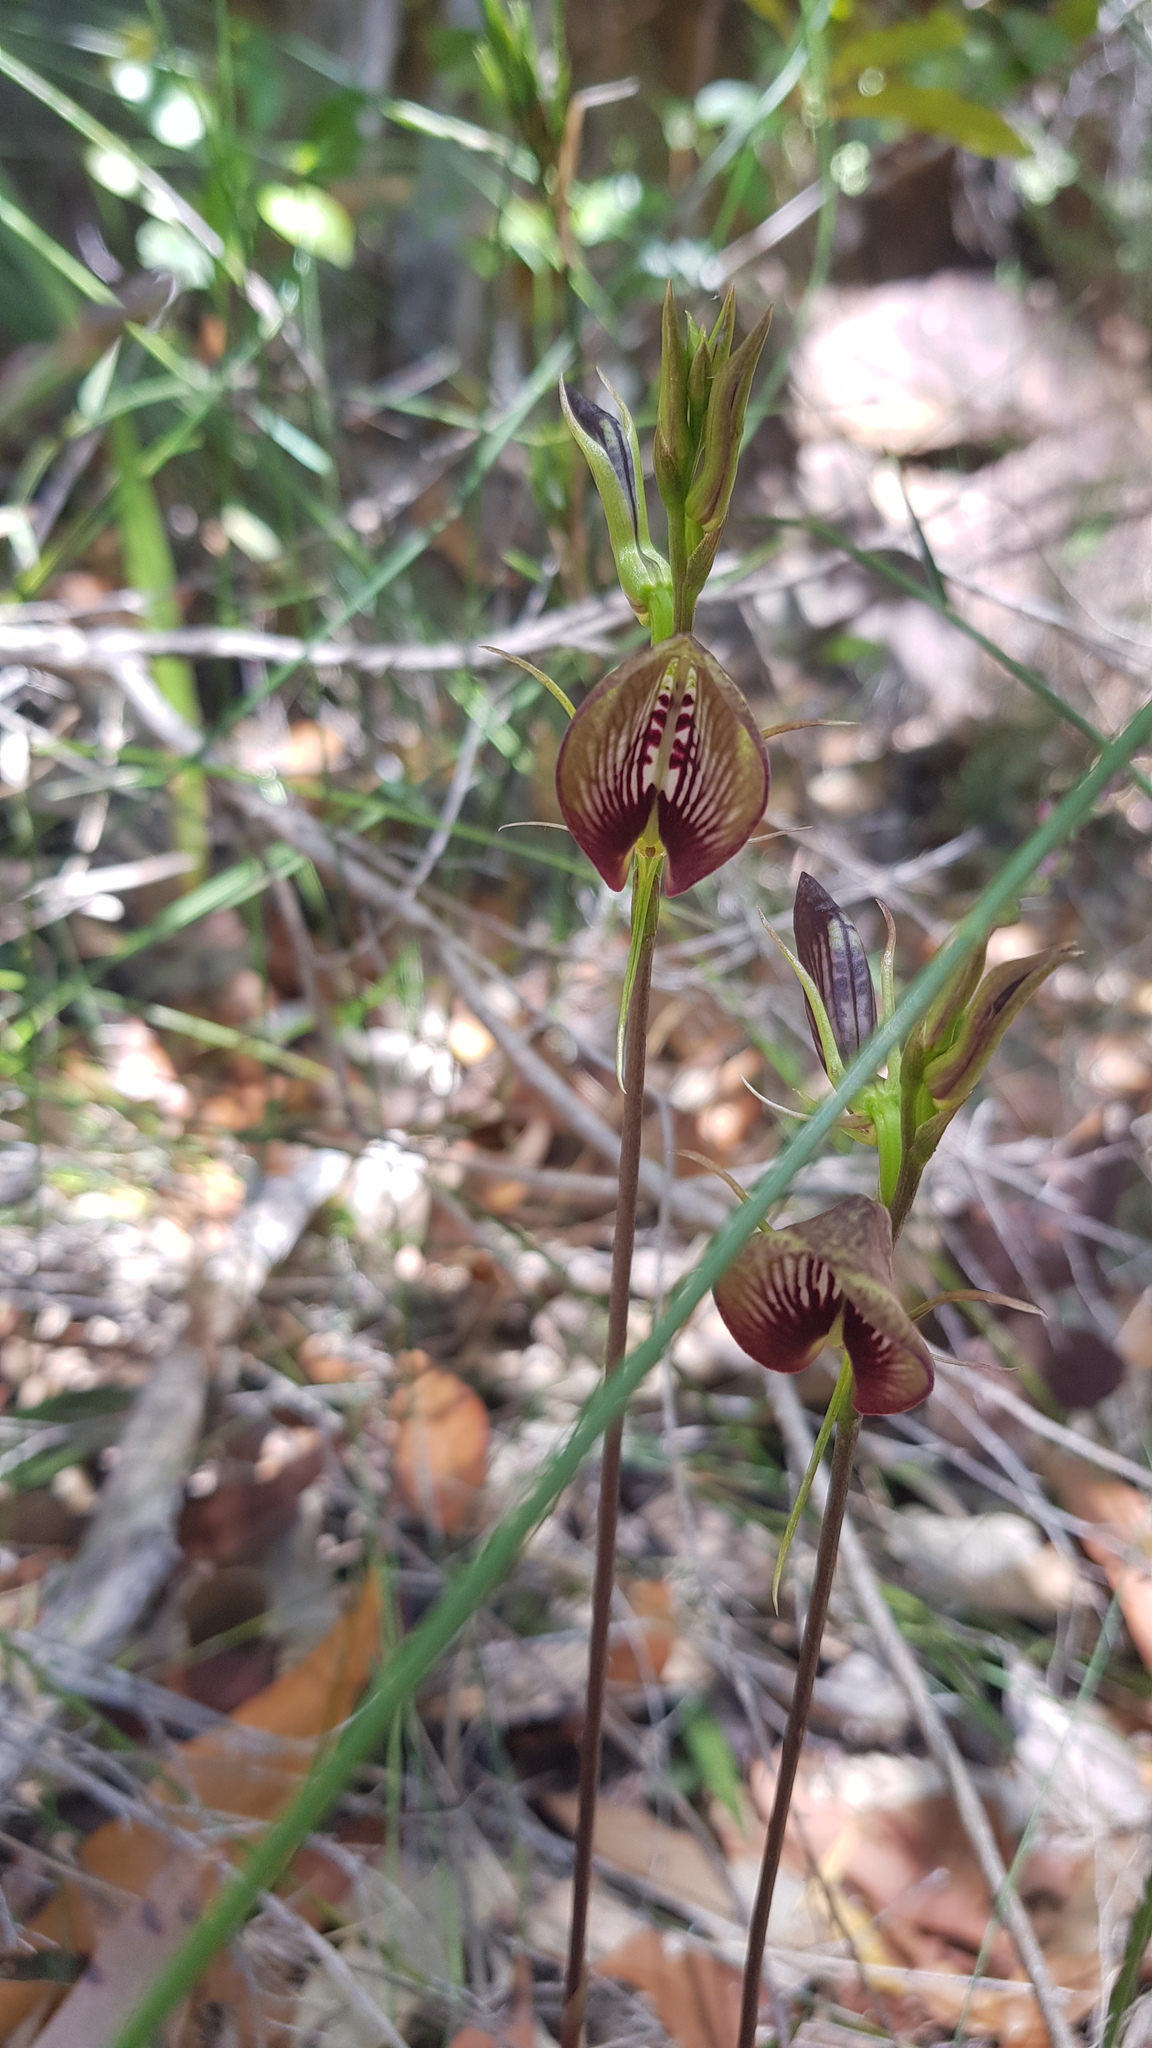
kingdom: Plantae
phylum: Tracheophyta
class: Liliopsida
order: Asparagales
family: Orchidaceae
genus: Cryptostylis
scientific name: Cryptostylis erecta
